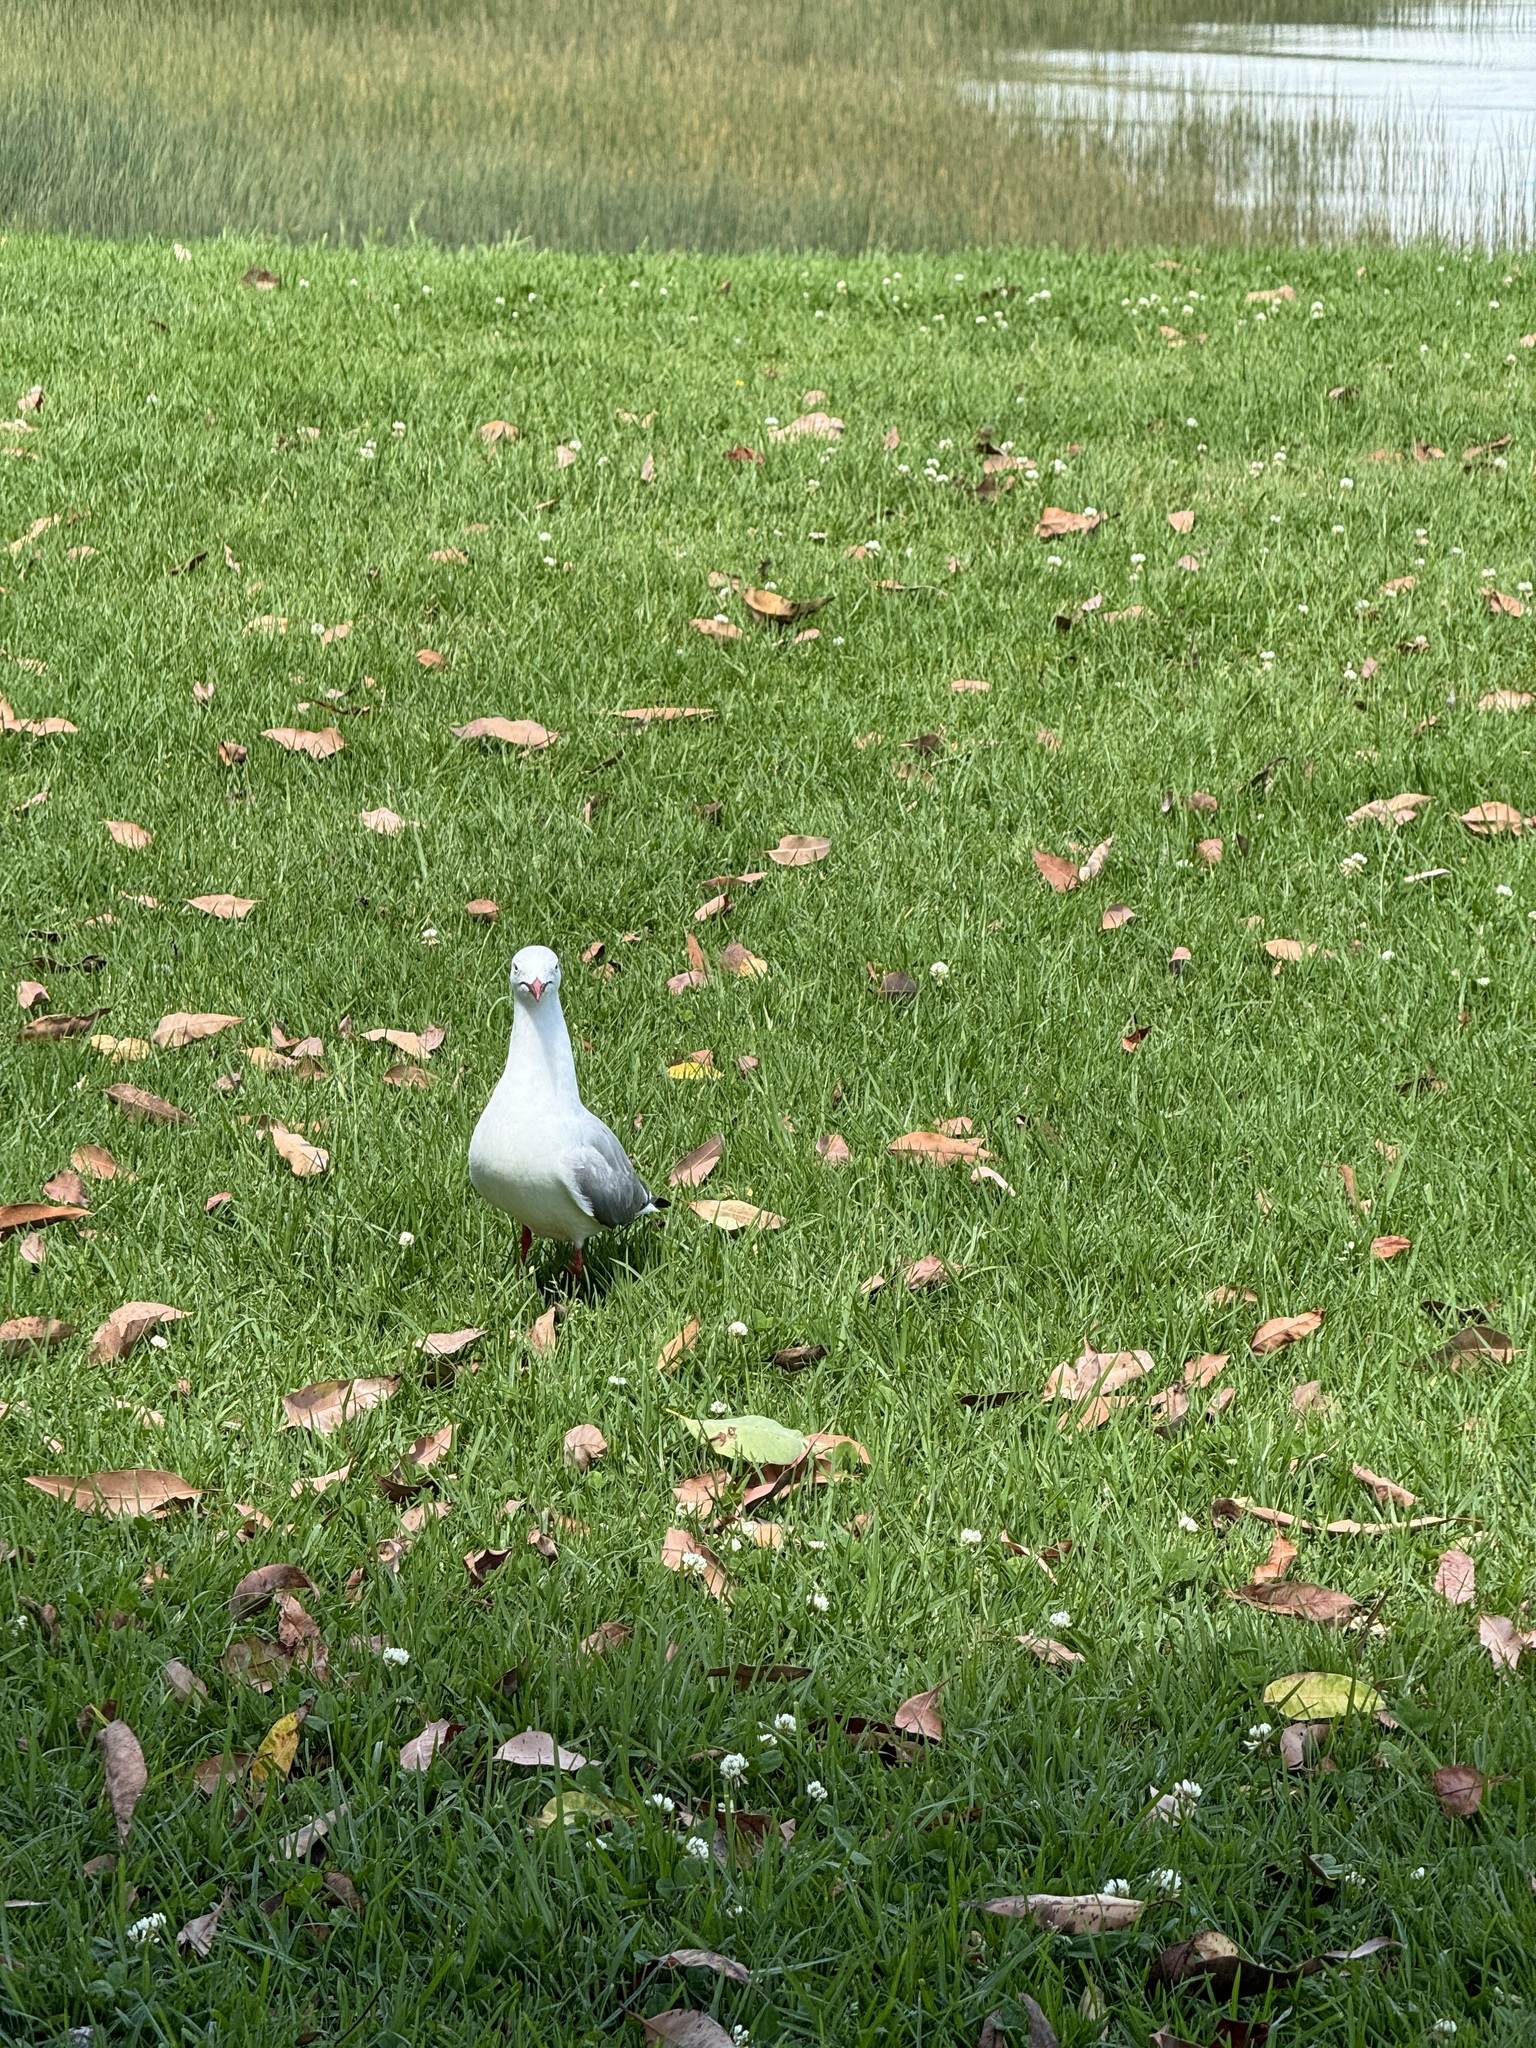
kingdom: Animalia
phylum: Chordata
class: Aves
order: Charadriiformes
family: Laridae
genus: Chroicocephalus
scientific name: Chroicocephalus novaehollandiae
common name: Silver gull
